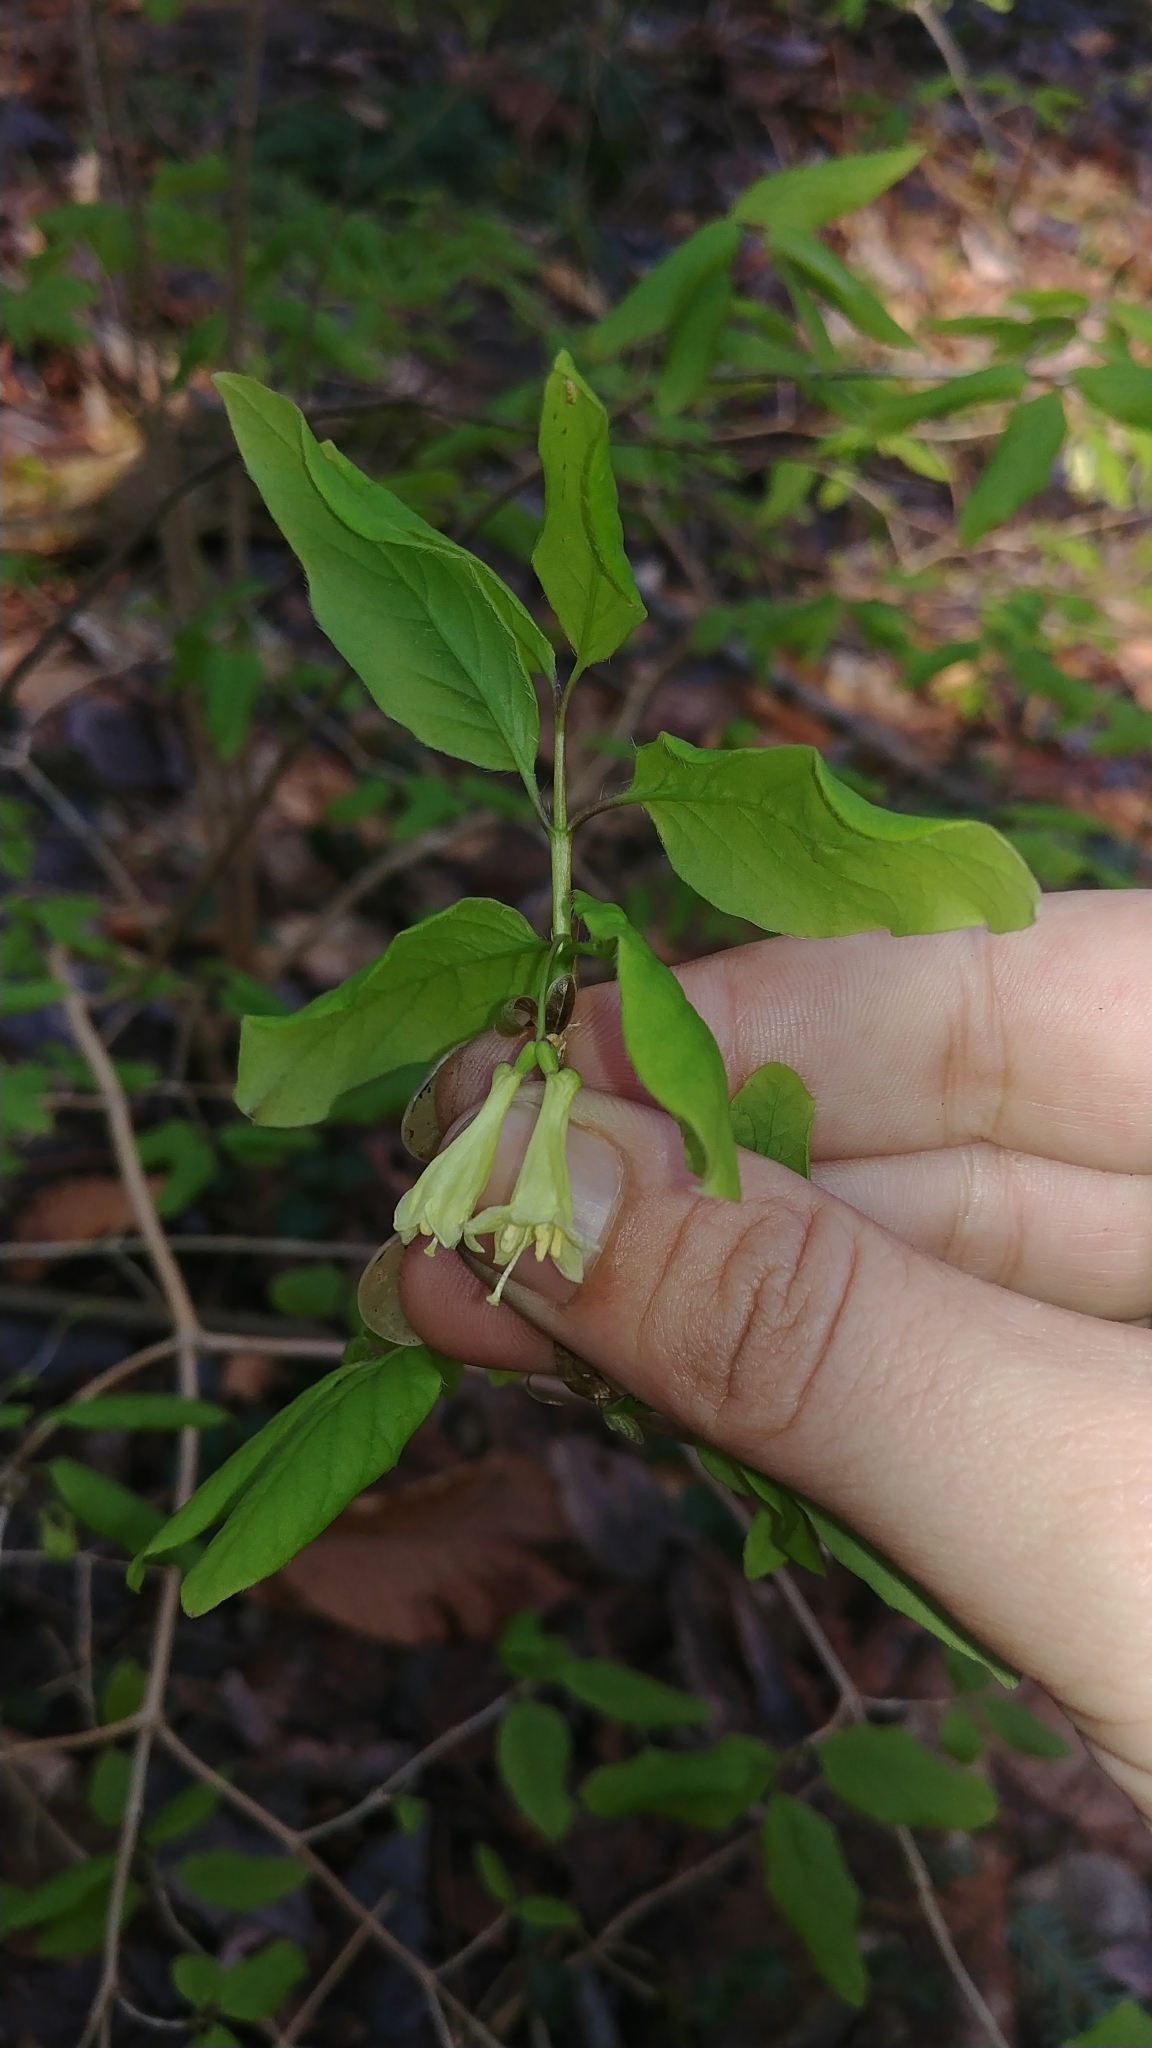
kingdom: Plantae
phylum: Tracheophyta
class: Magnoliopsida
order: Dipsacales
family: Caprifoliaceae
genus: Lonicera
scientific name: Lonicera canadensis
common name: American fly-honeysuckle
